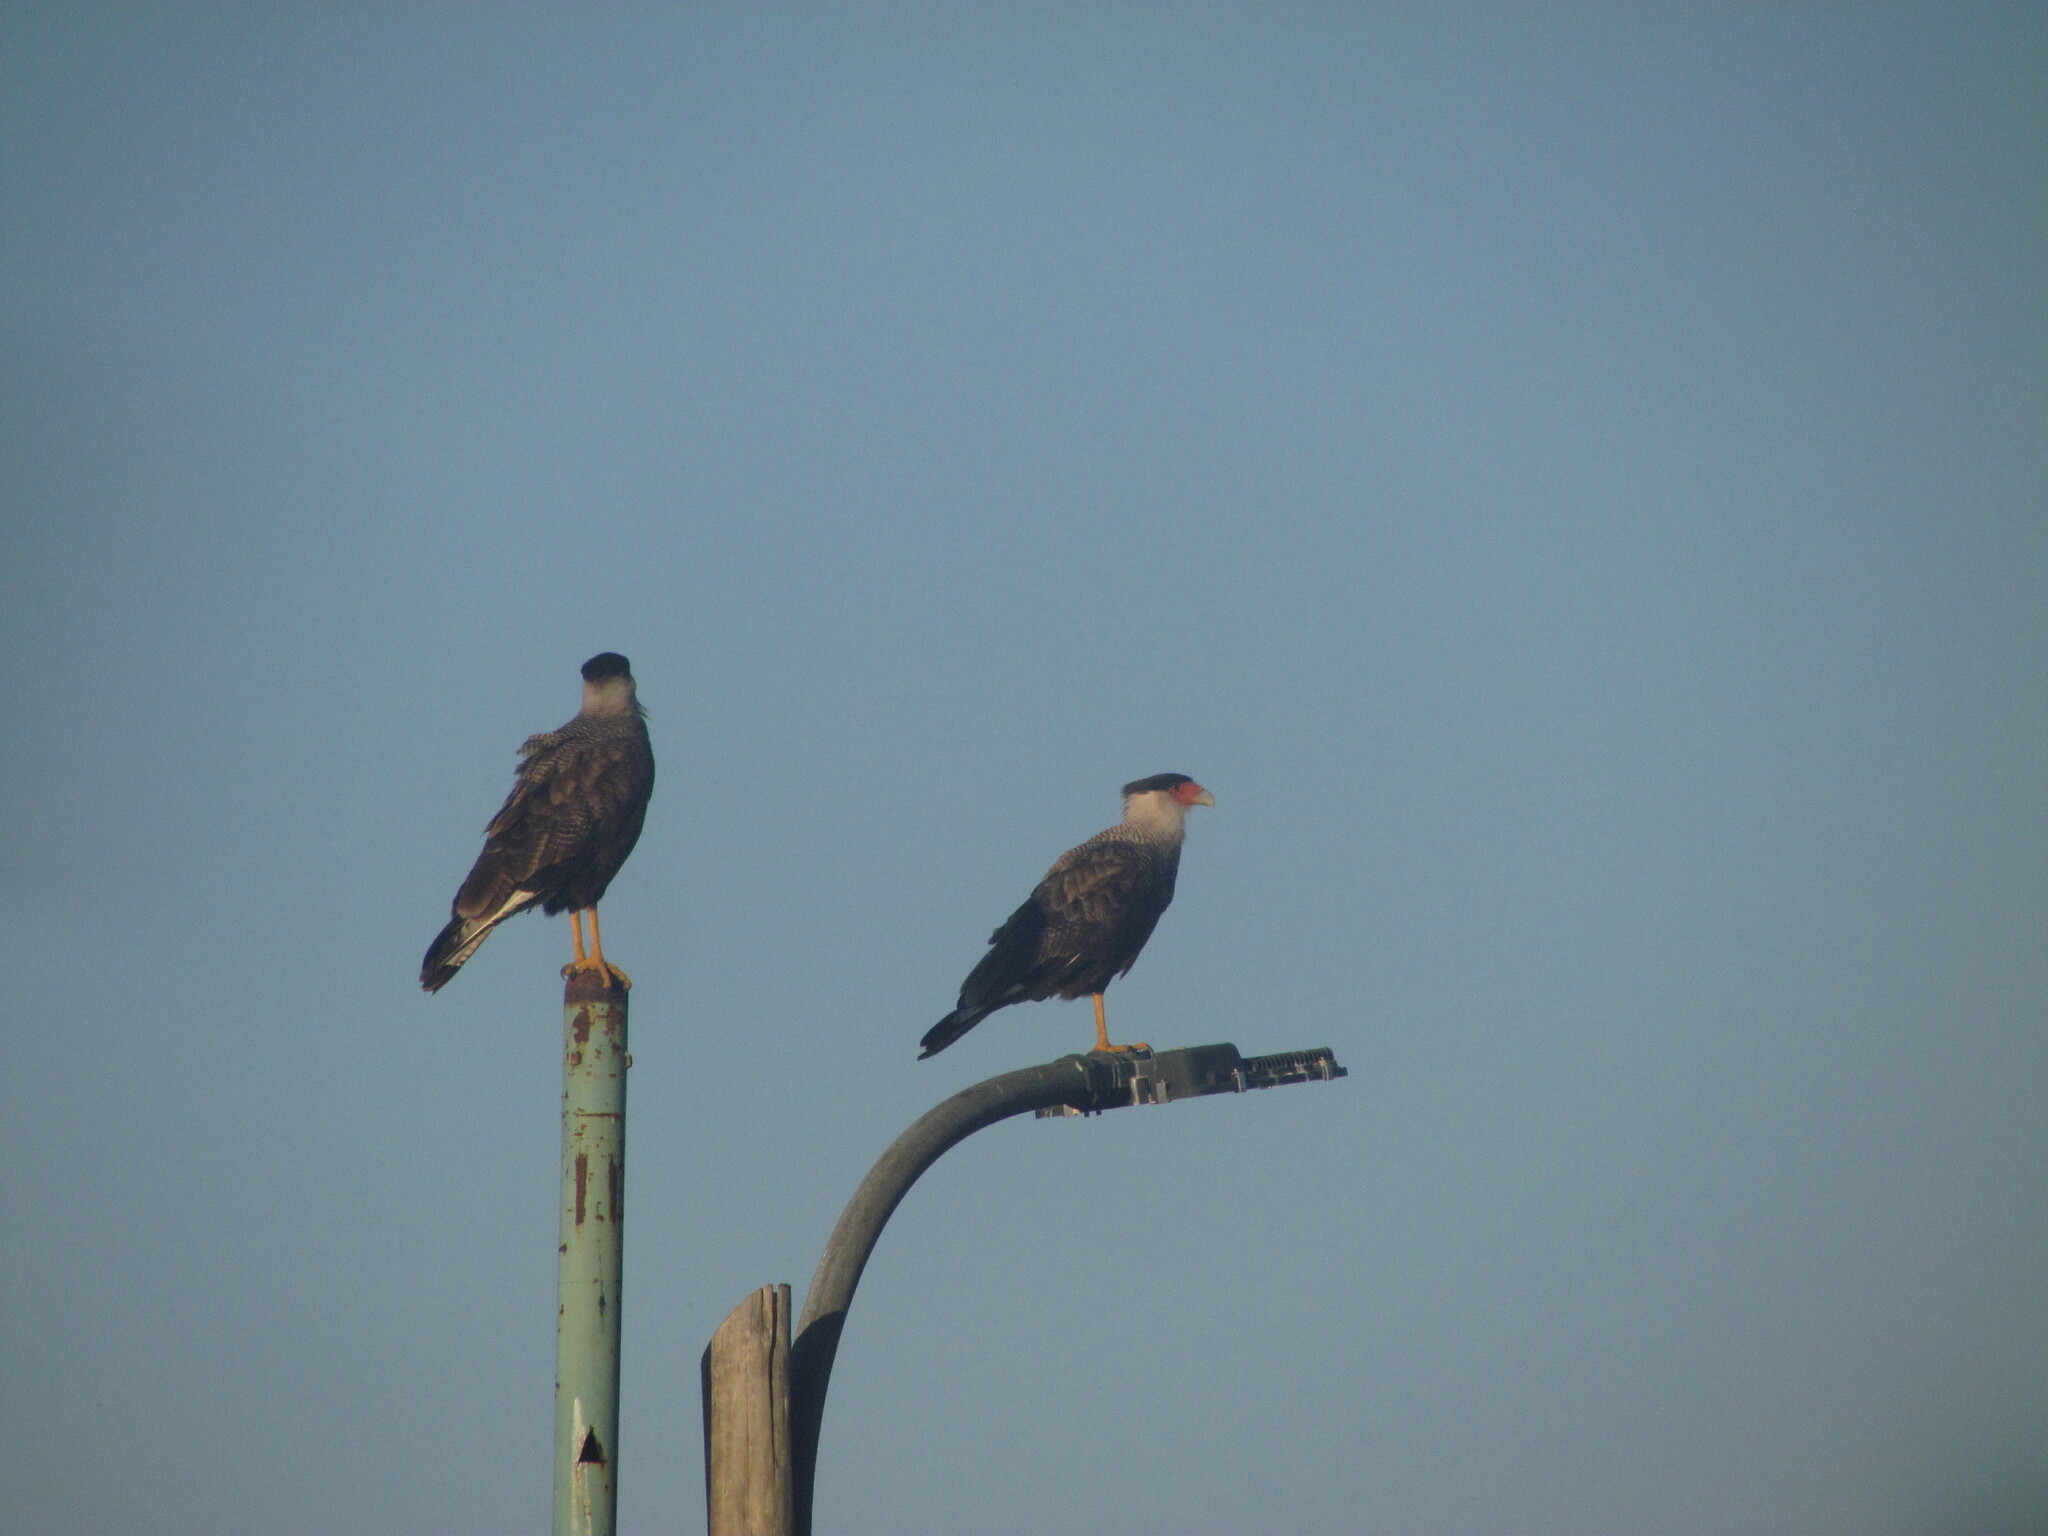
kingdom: Animalia
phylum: Chordata
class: Aves
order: Falconiformes
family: Falconidae
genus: Caracara
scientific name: Caracara plancus
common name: Southern caracara
